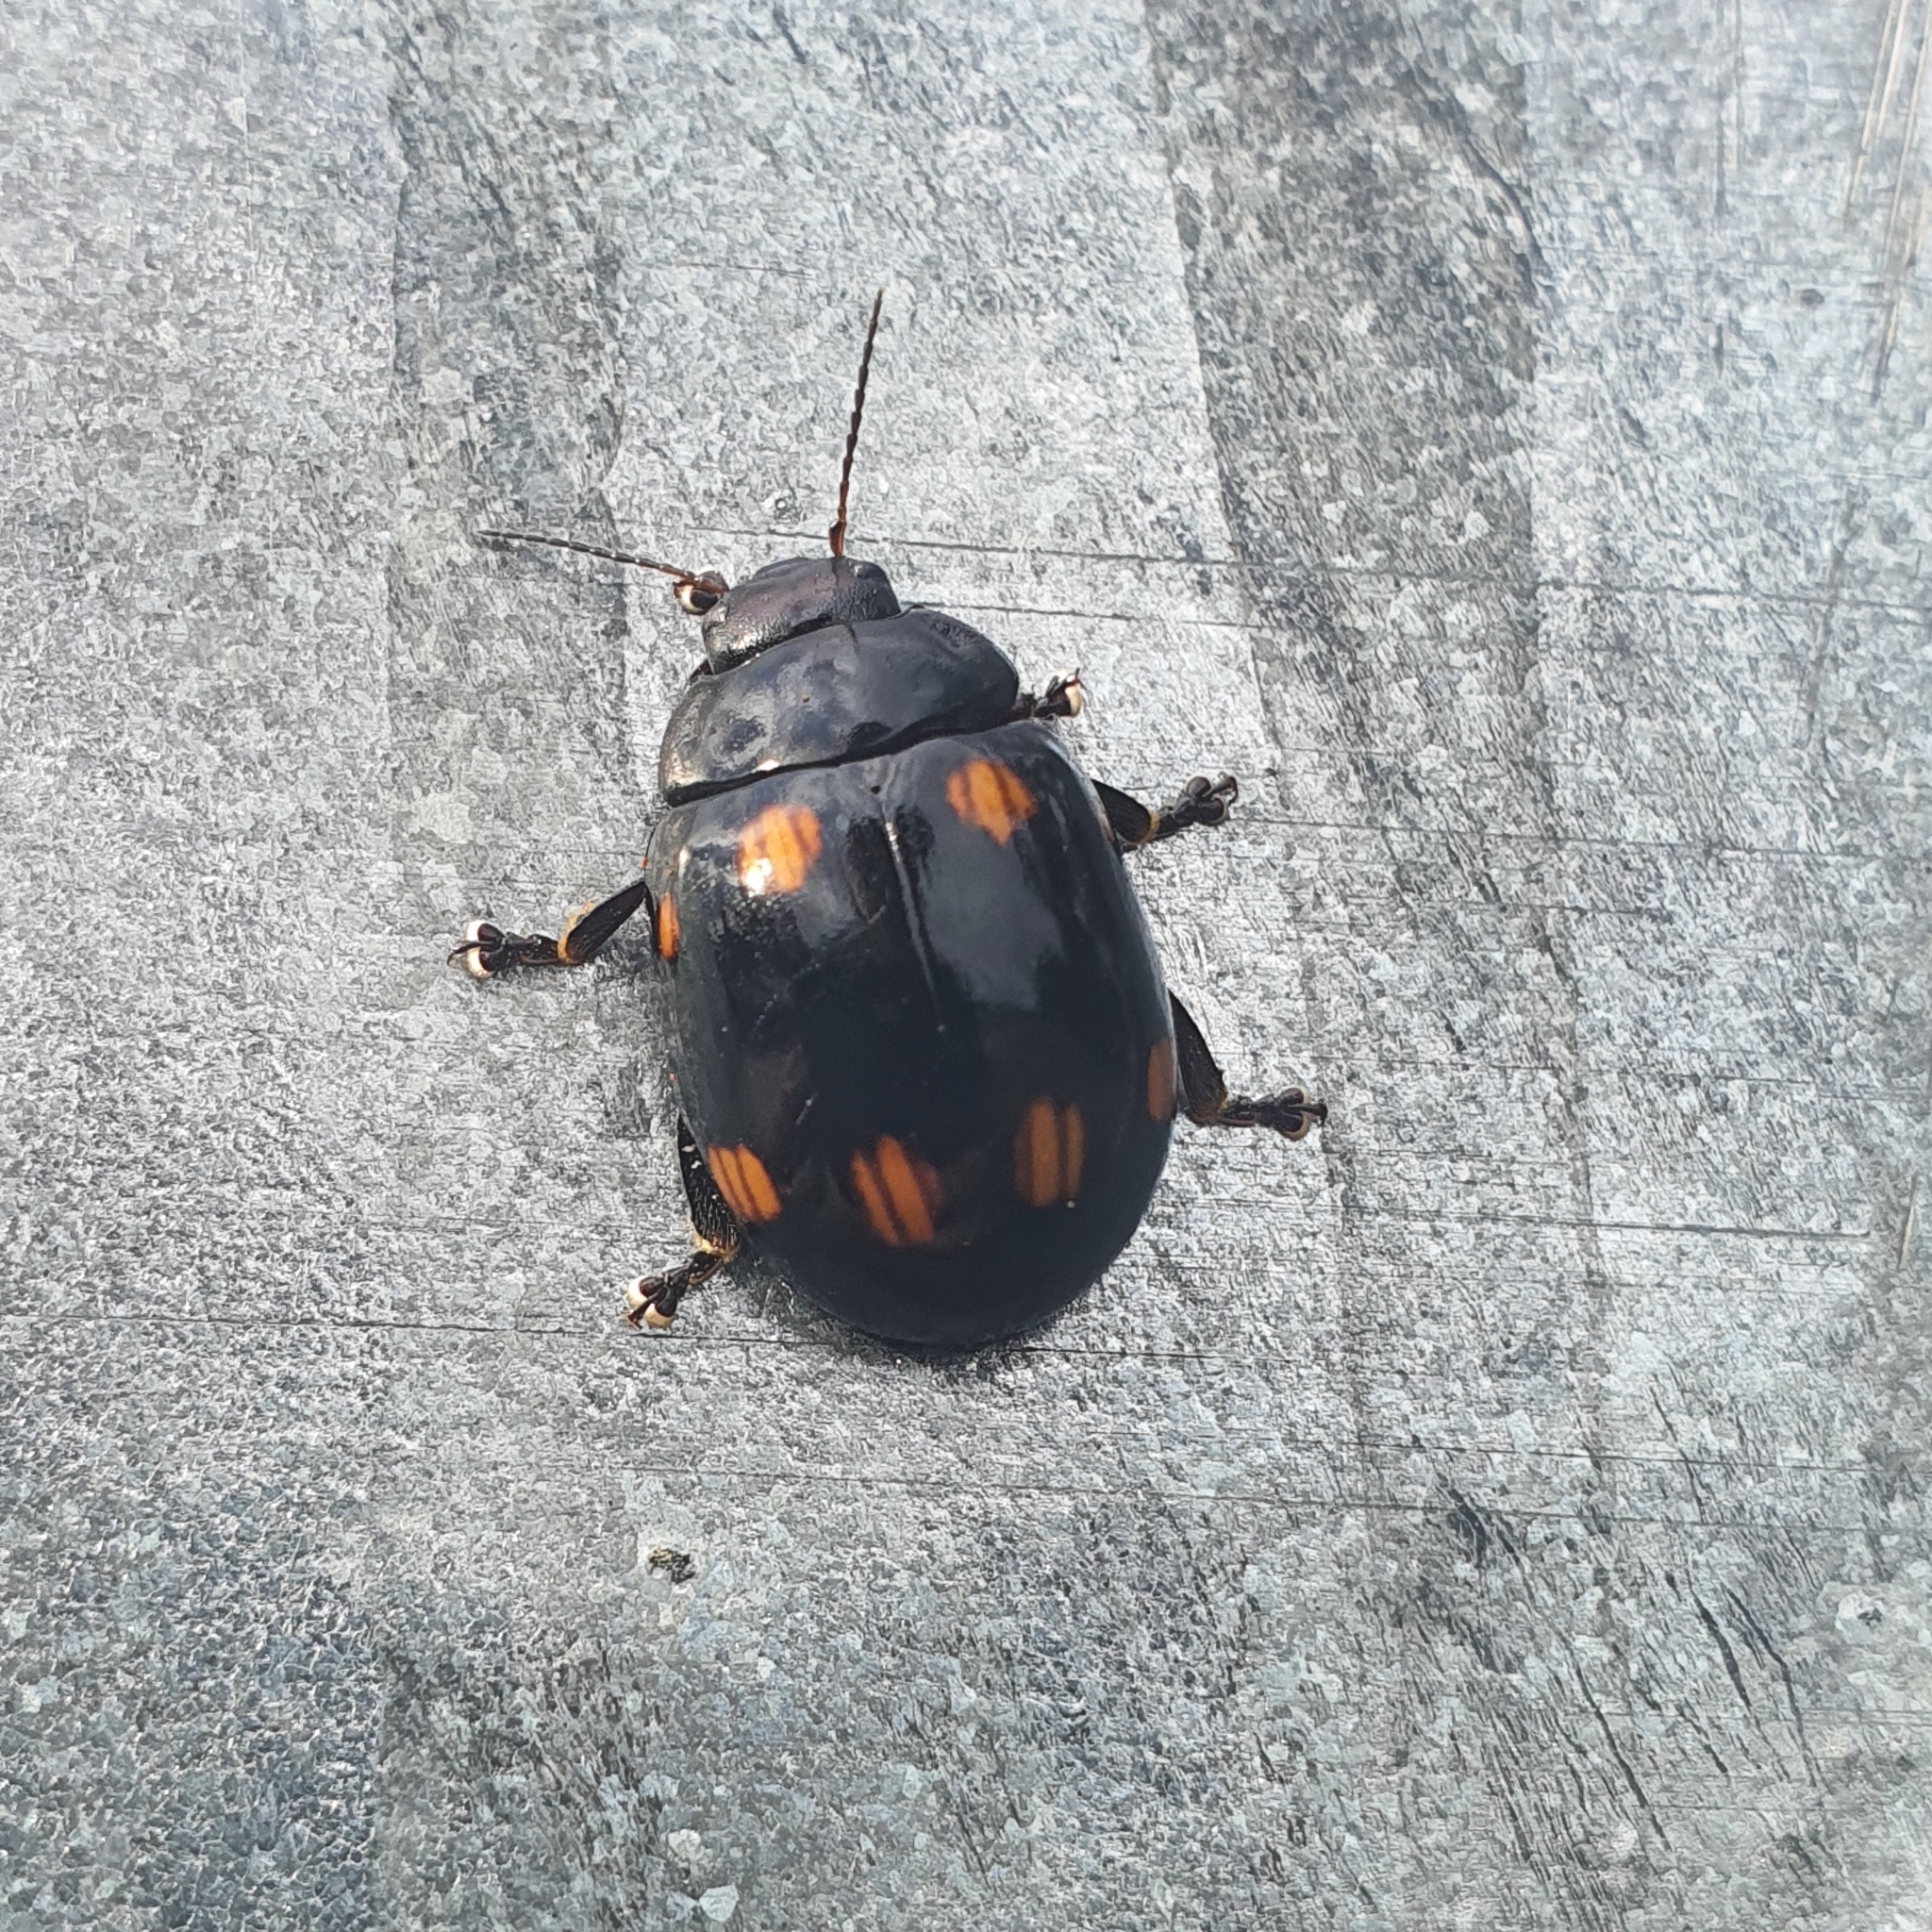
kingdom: Animalia
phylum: Arthropoda
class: Insecta
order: Coleoptera
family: Chrysomelidae
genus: Paropsisterna
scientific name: Paropsisterna
